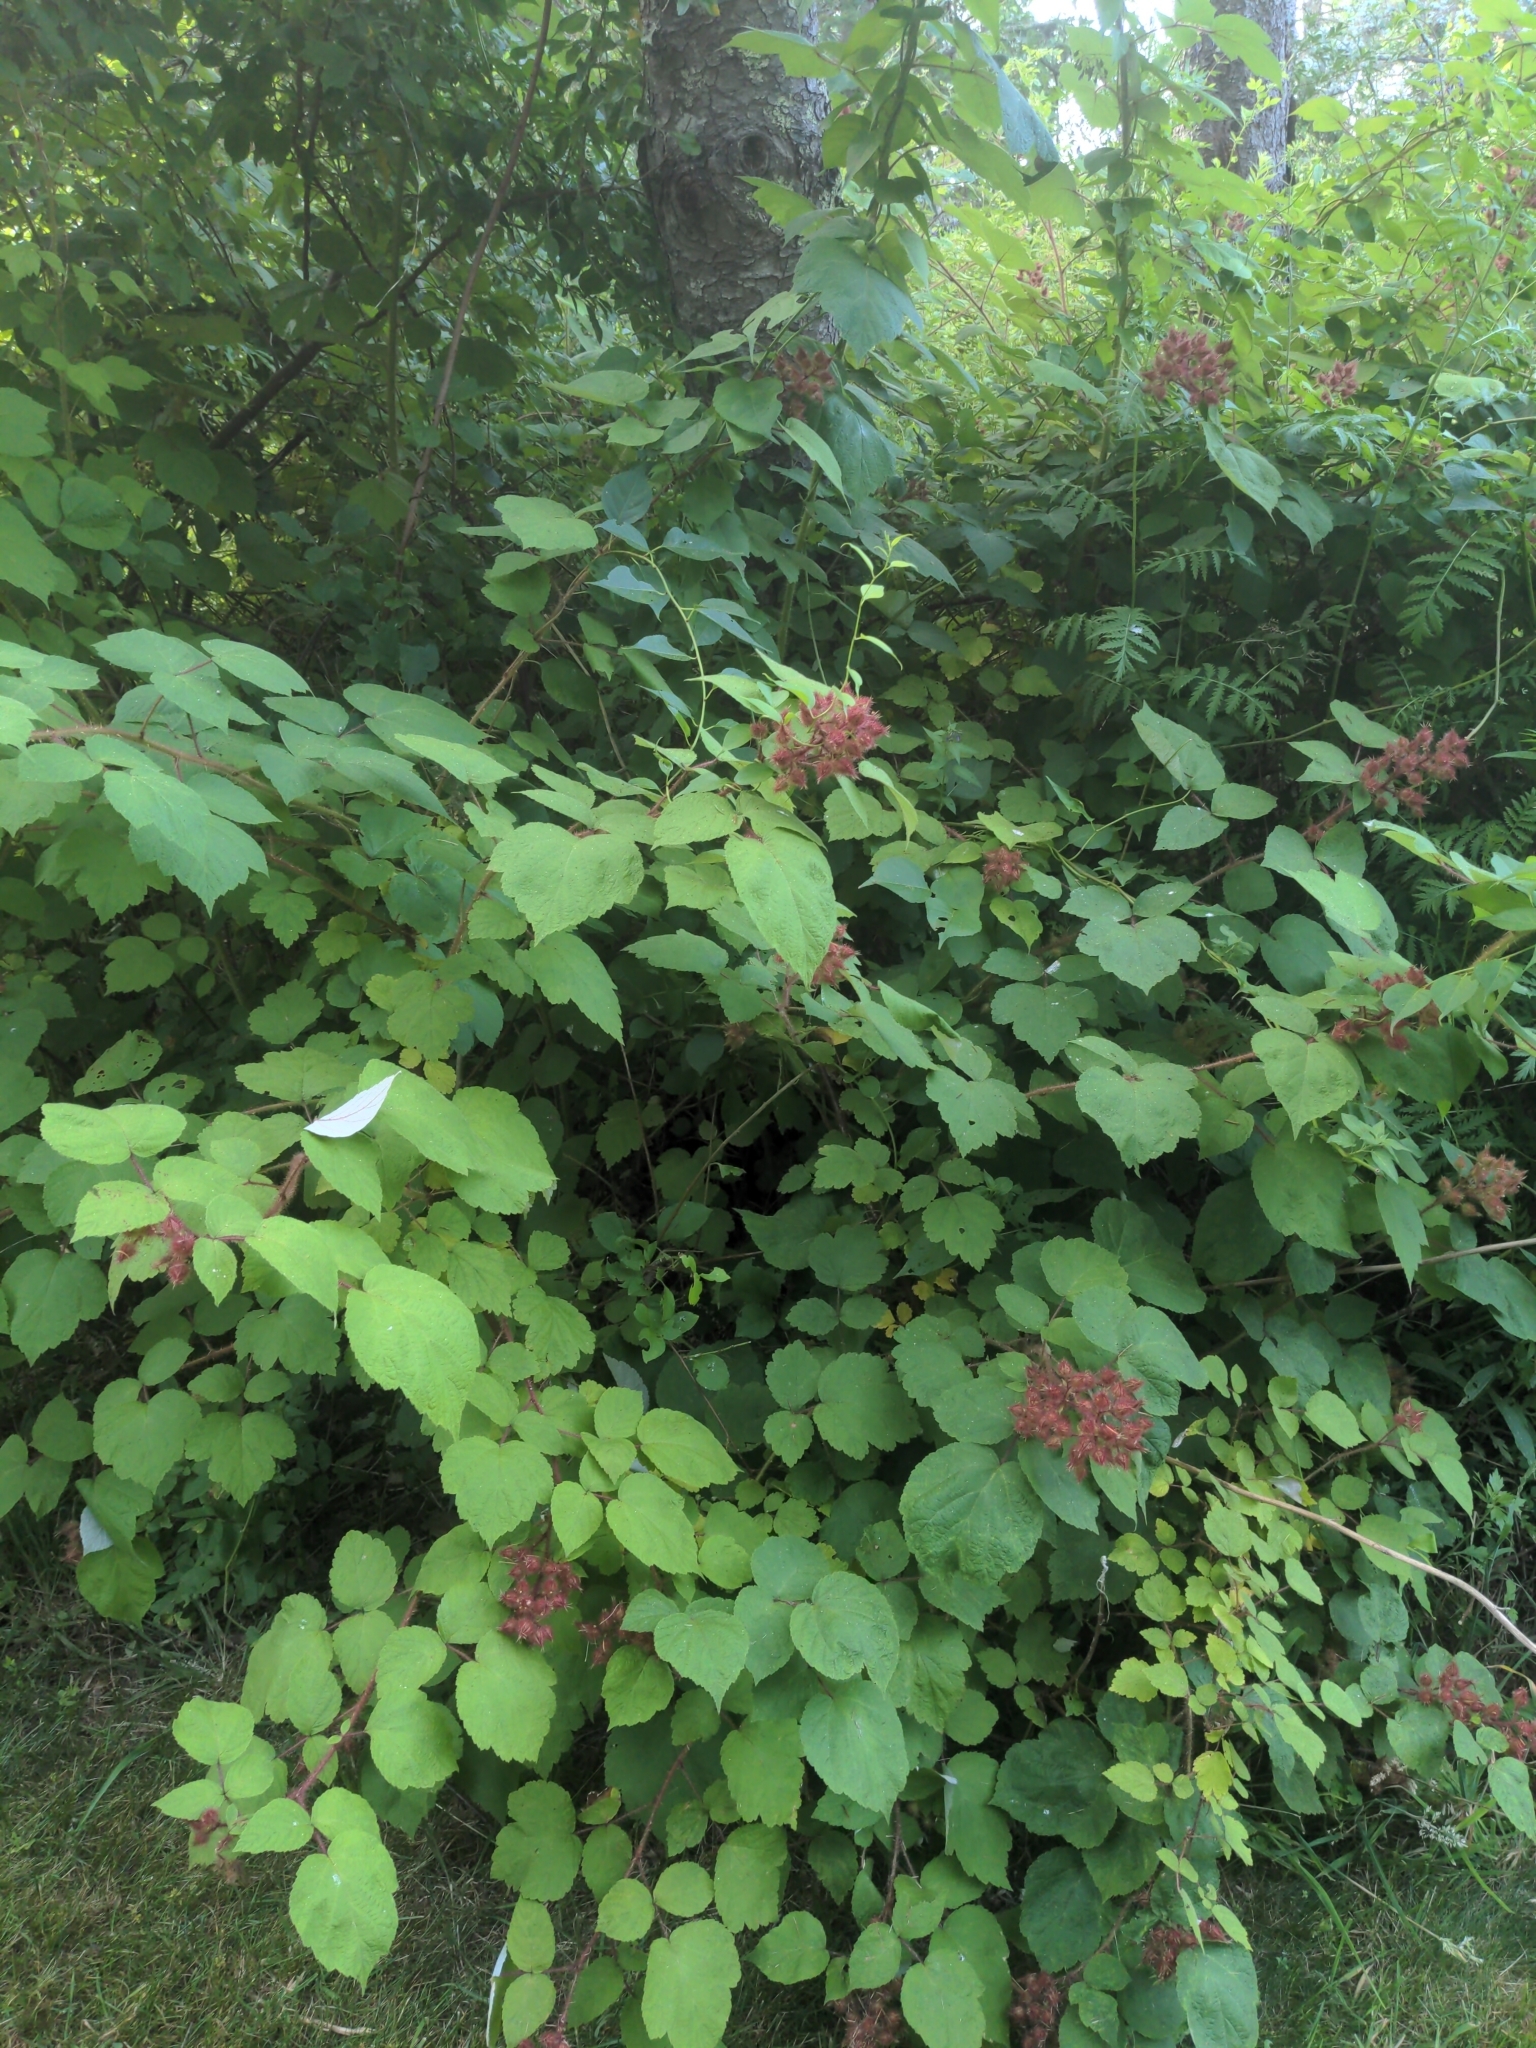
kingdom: Plantae
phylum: Tracheophyta
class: Magnoliopsida
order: Rosales
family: Rosaceae
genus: Rubus
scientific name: Rubus phoenicolasius
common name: Japanese wineberry
